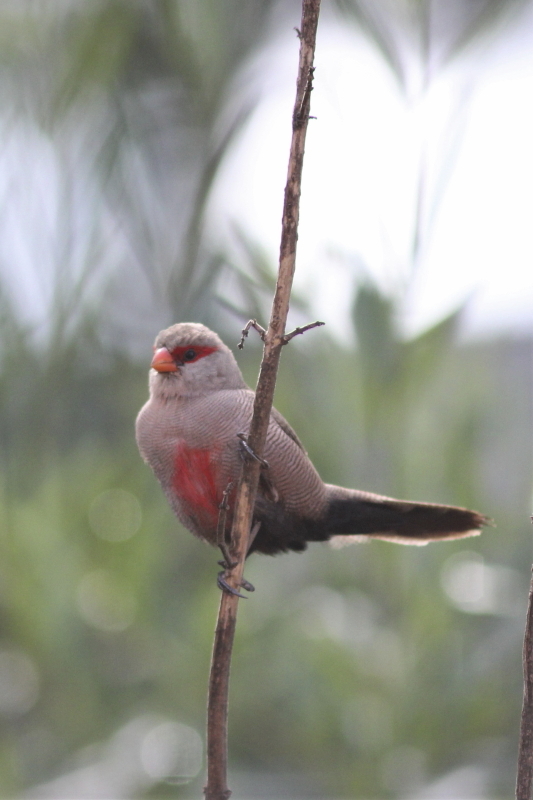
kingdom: Animalia
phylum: Chordata
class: Aves
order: Passeriformes
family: Estrildidae
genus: Estrilda
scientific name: Estrilda astrild
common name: Common waxbill
